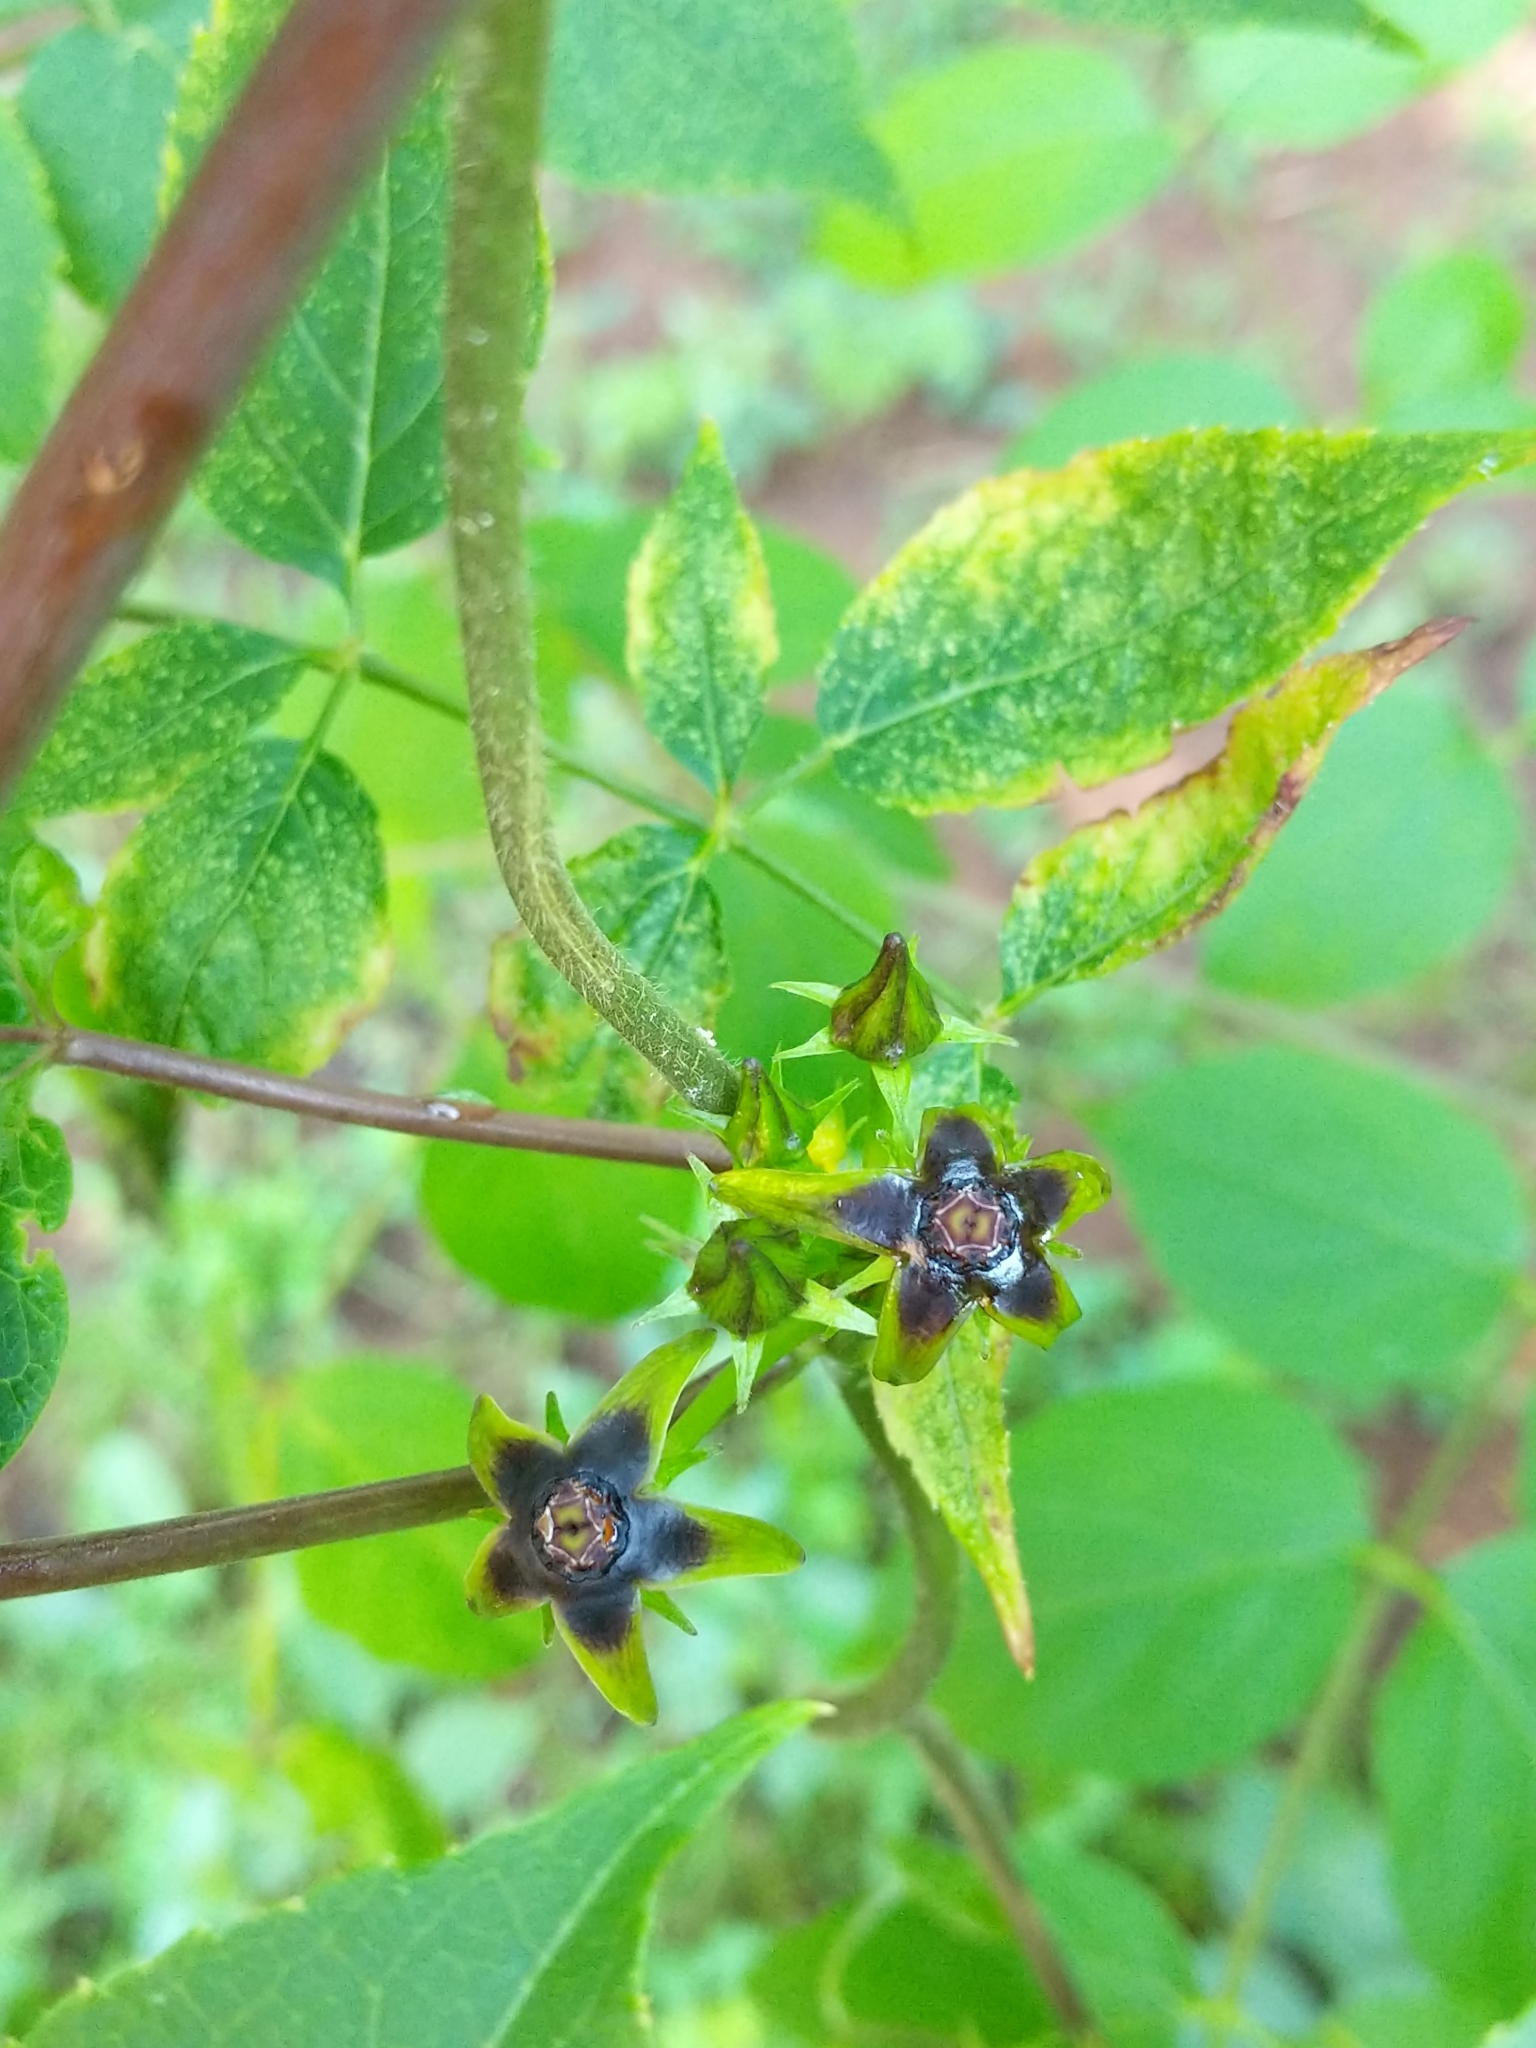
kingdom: Plantae
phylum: Tracheophyta
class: Magnoliopsida
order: Gentianales
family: Apocynaceae
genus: Gonolobus
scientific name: Gonolobus suberosus
